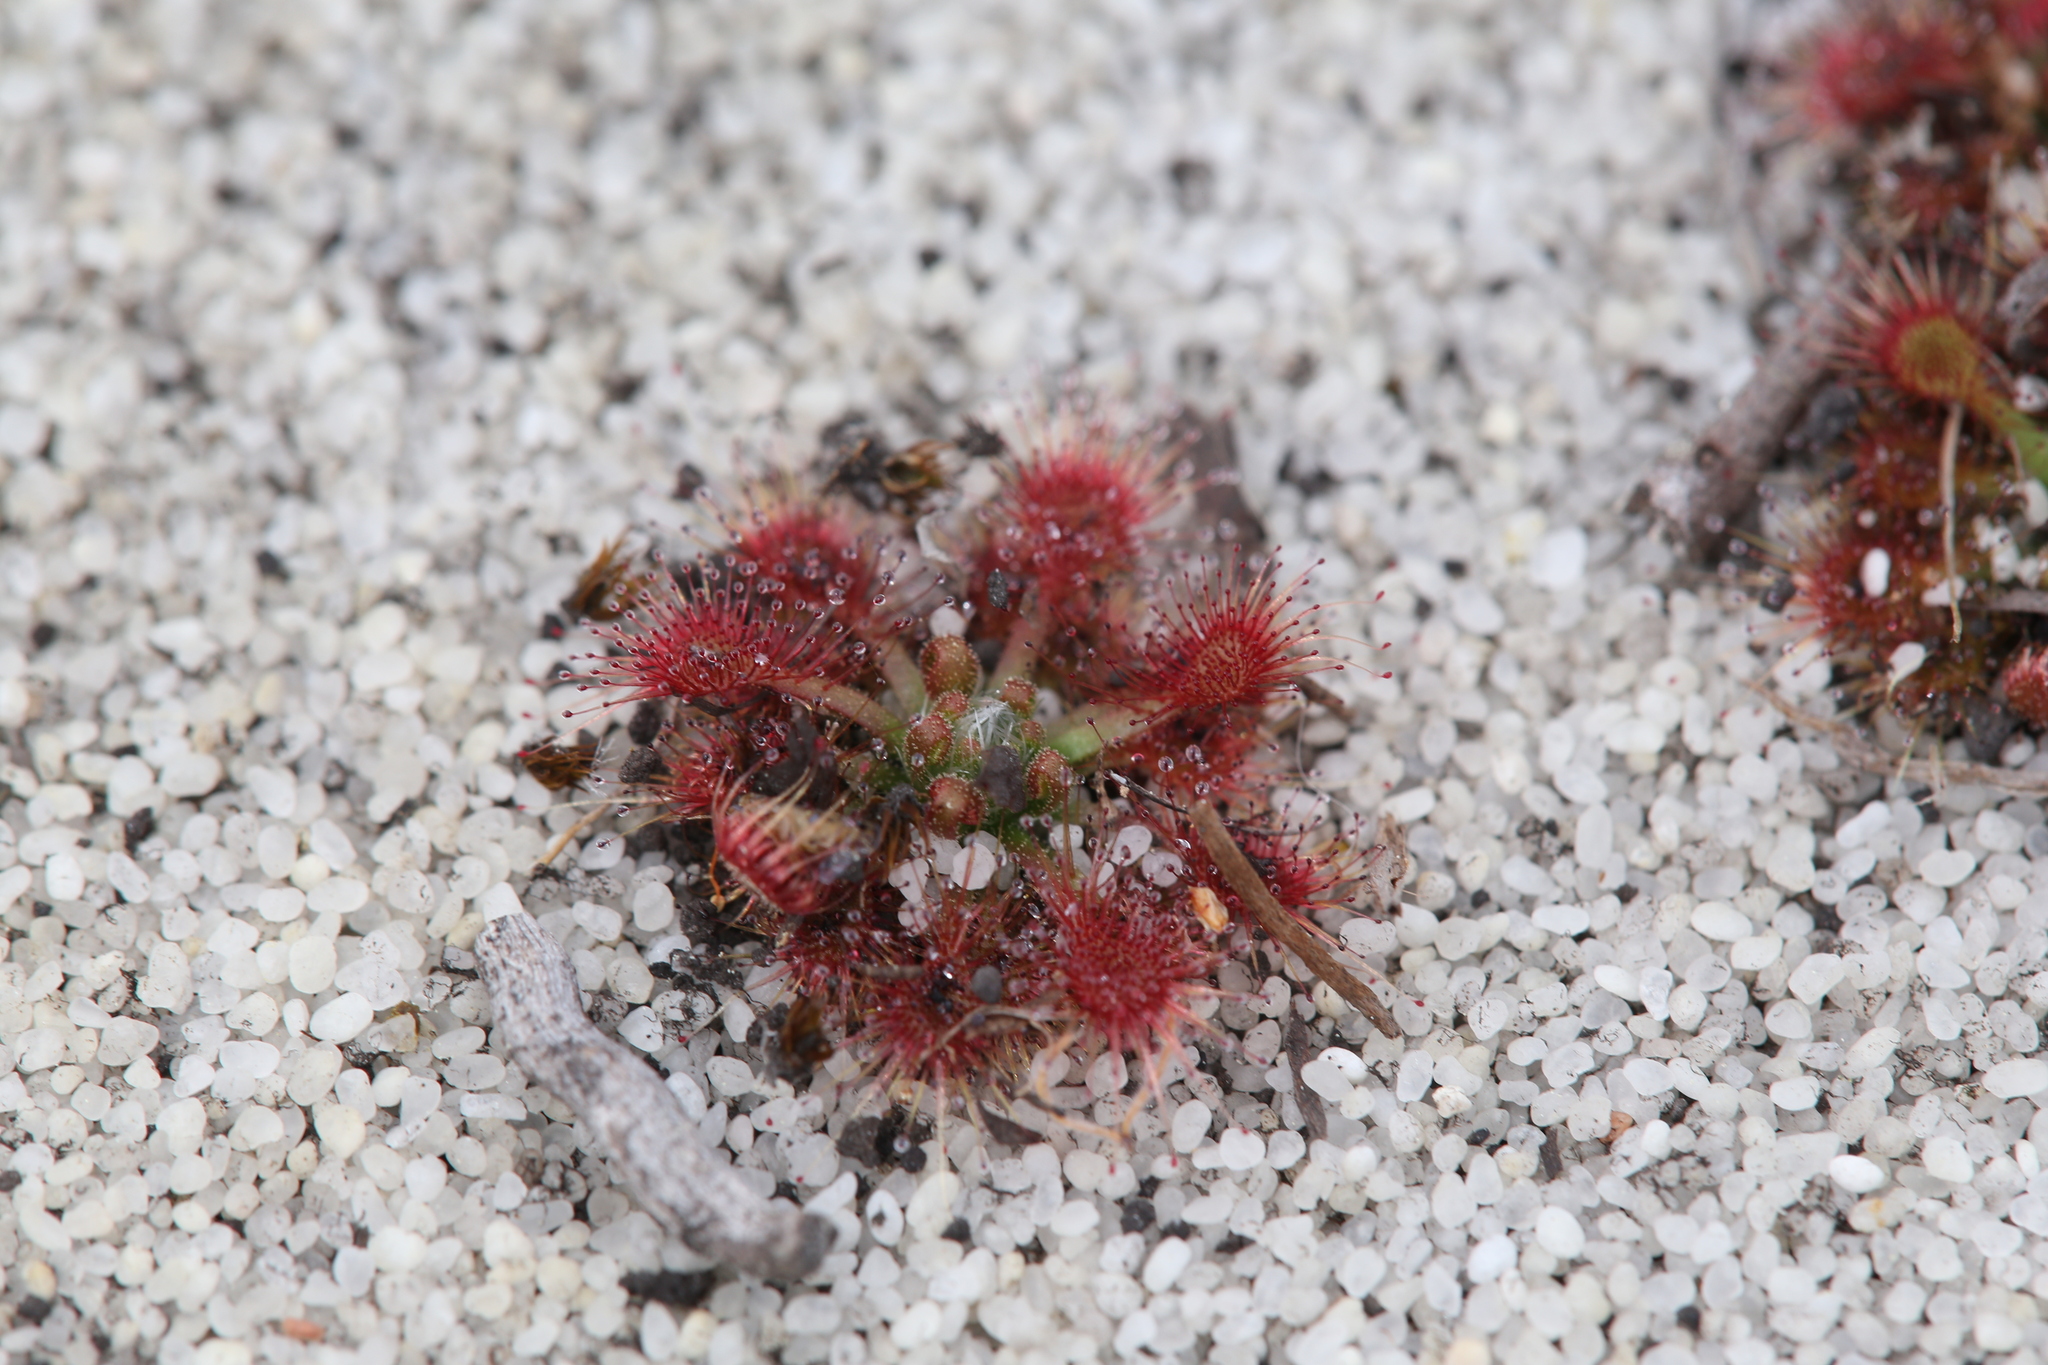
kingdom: Plantae
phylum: Tracheophyta
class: Magnoliopsida
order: Caryophyllales
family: Droseraceae
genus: Drosera
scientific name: Drosera patens
